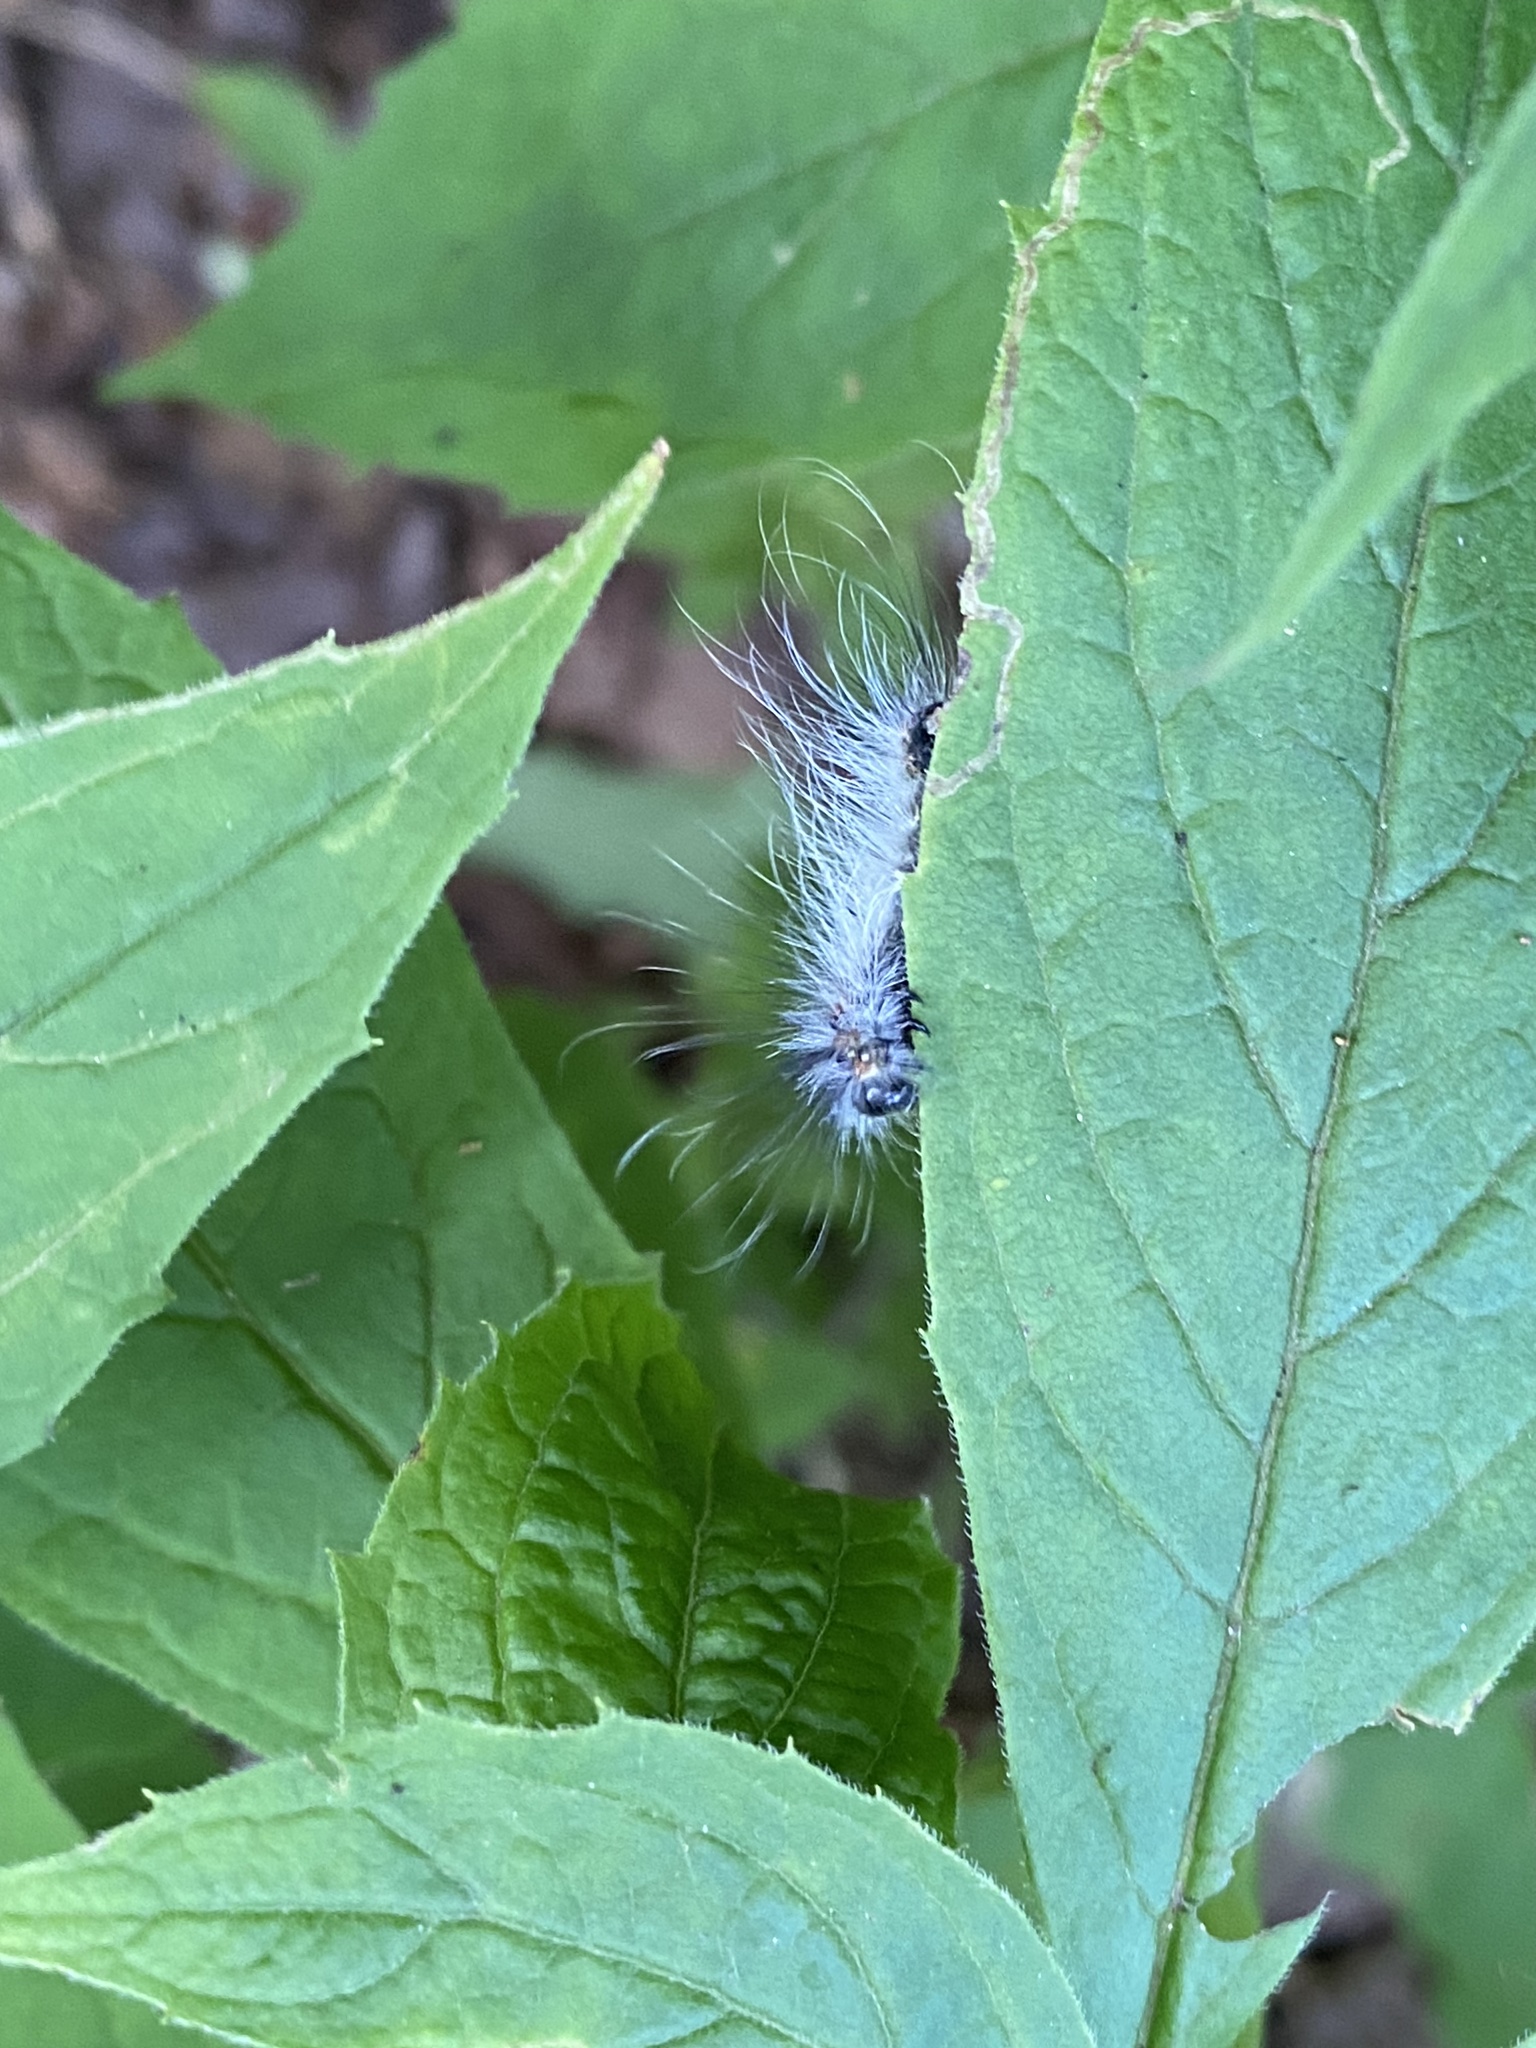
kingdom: Animalia
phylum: Arthropoda
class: Insecta
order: Lepidoptera
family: Erebidae
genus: Hyphantria
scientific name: Hyphantria cunea
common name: American white moth
